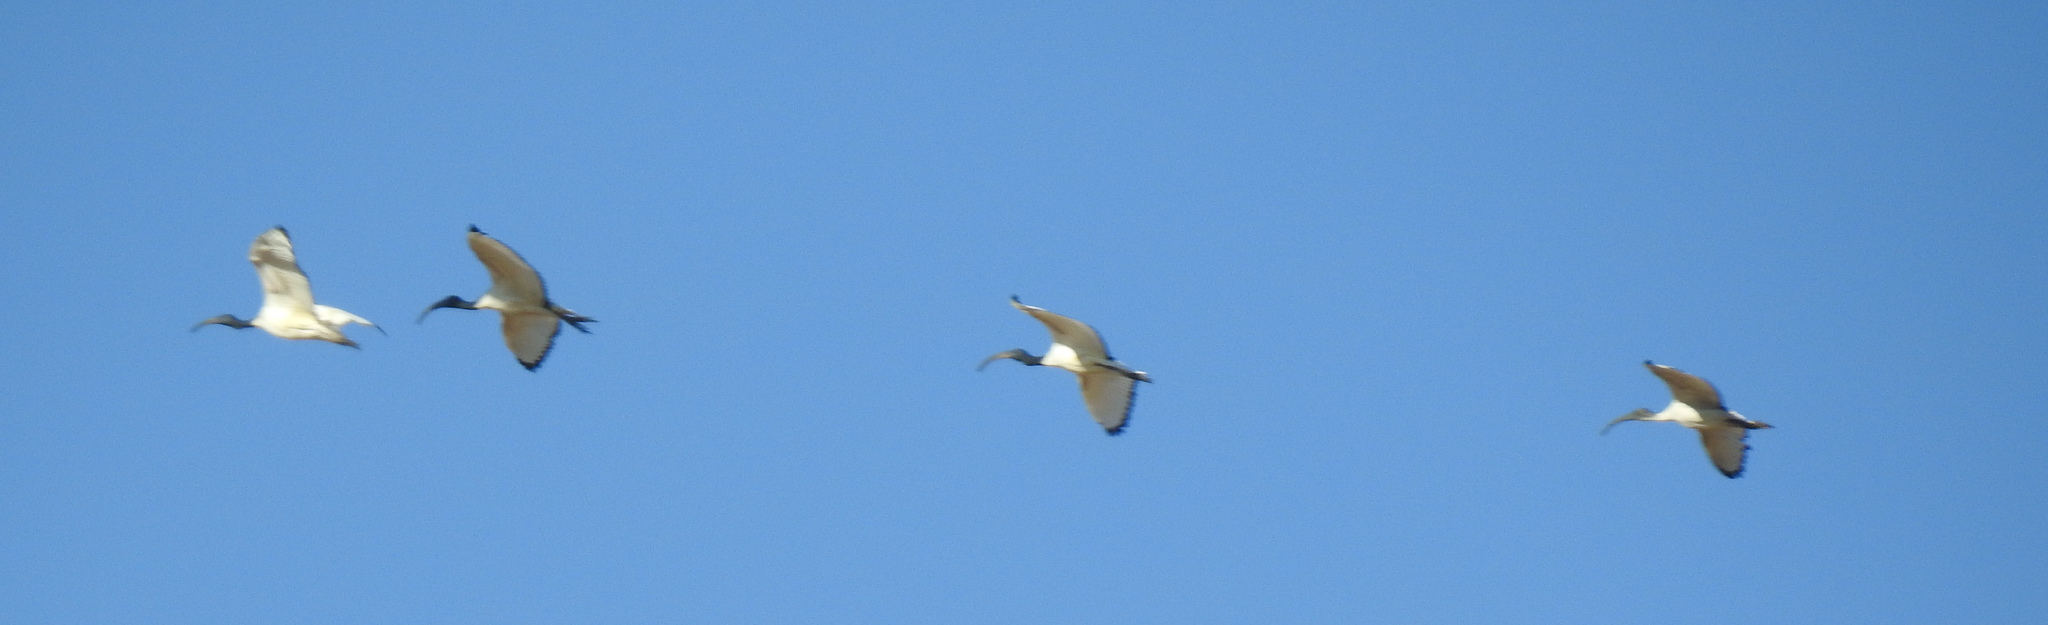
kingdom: Animalia
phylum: Chordata
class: Aves
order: Pelecaniformes
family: Threskiornithidae
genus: Threskiornis
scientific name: Threskiornis aethiopicus
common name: Sacred ibis
